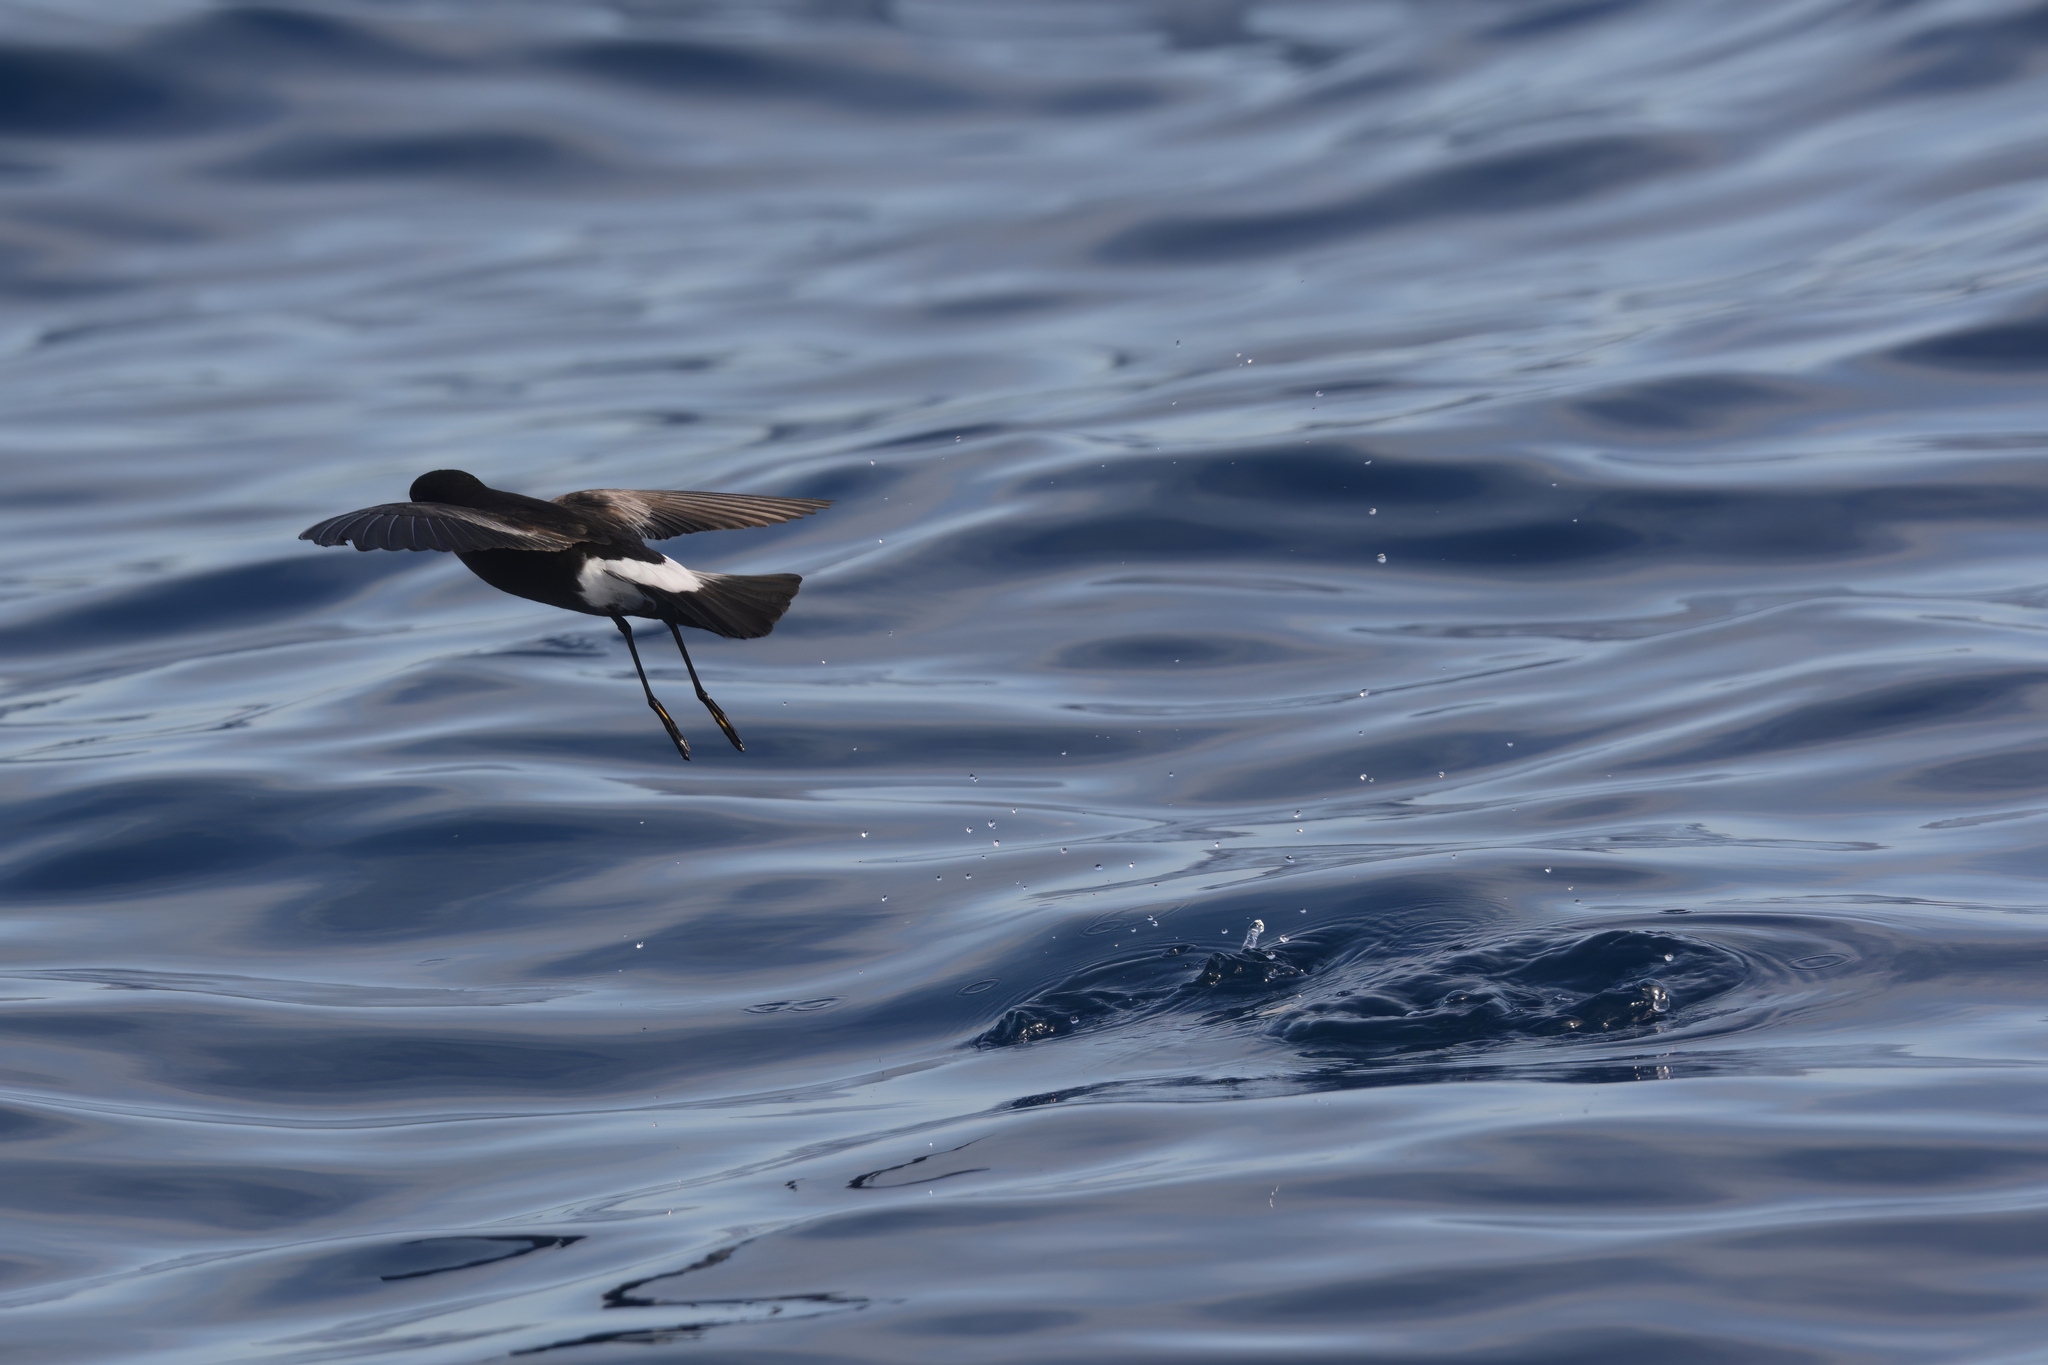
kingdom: Animalia
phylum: Chordata
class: Aves
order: Procellariiformes
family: Hydrobatidae
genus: Oceanites
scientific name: Oceanites oceanicus
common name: Wilson's storm petrel
